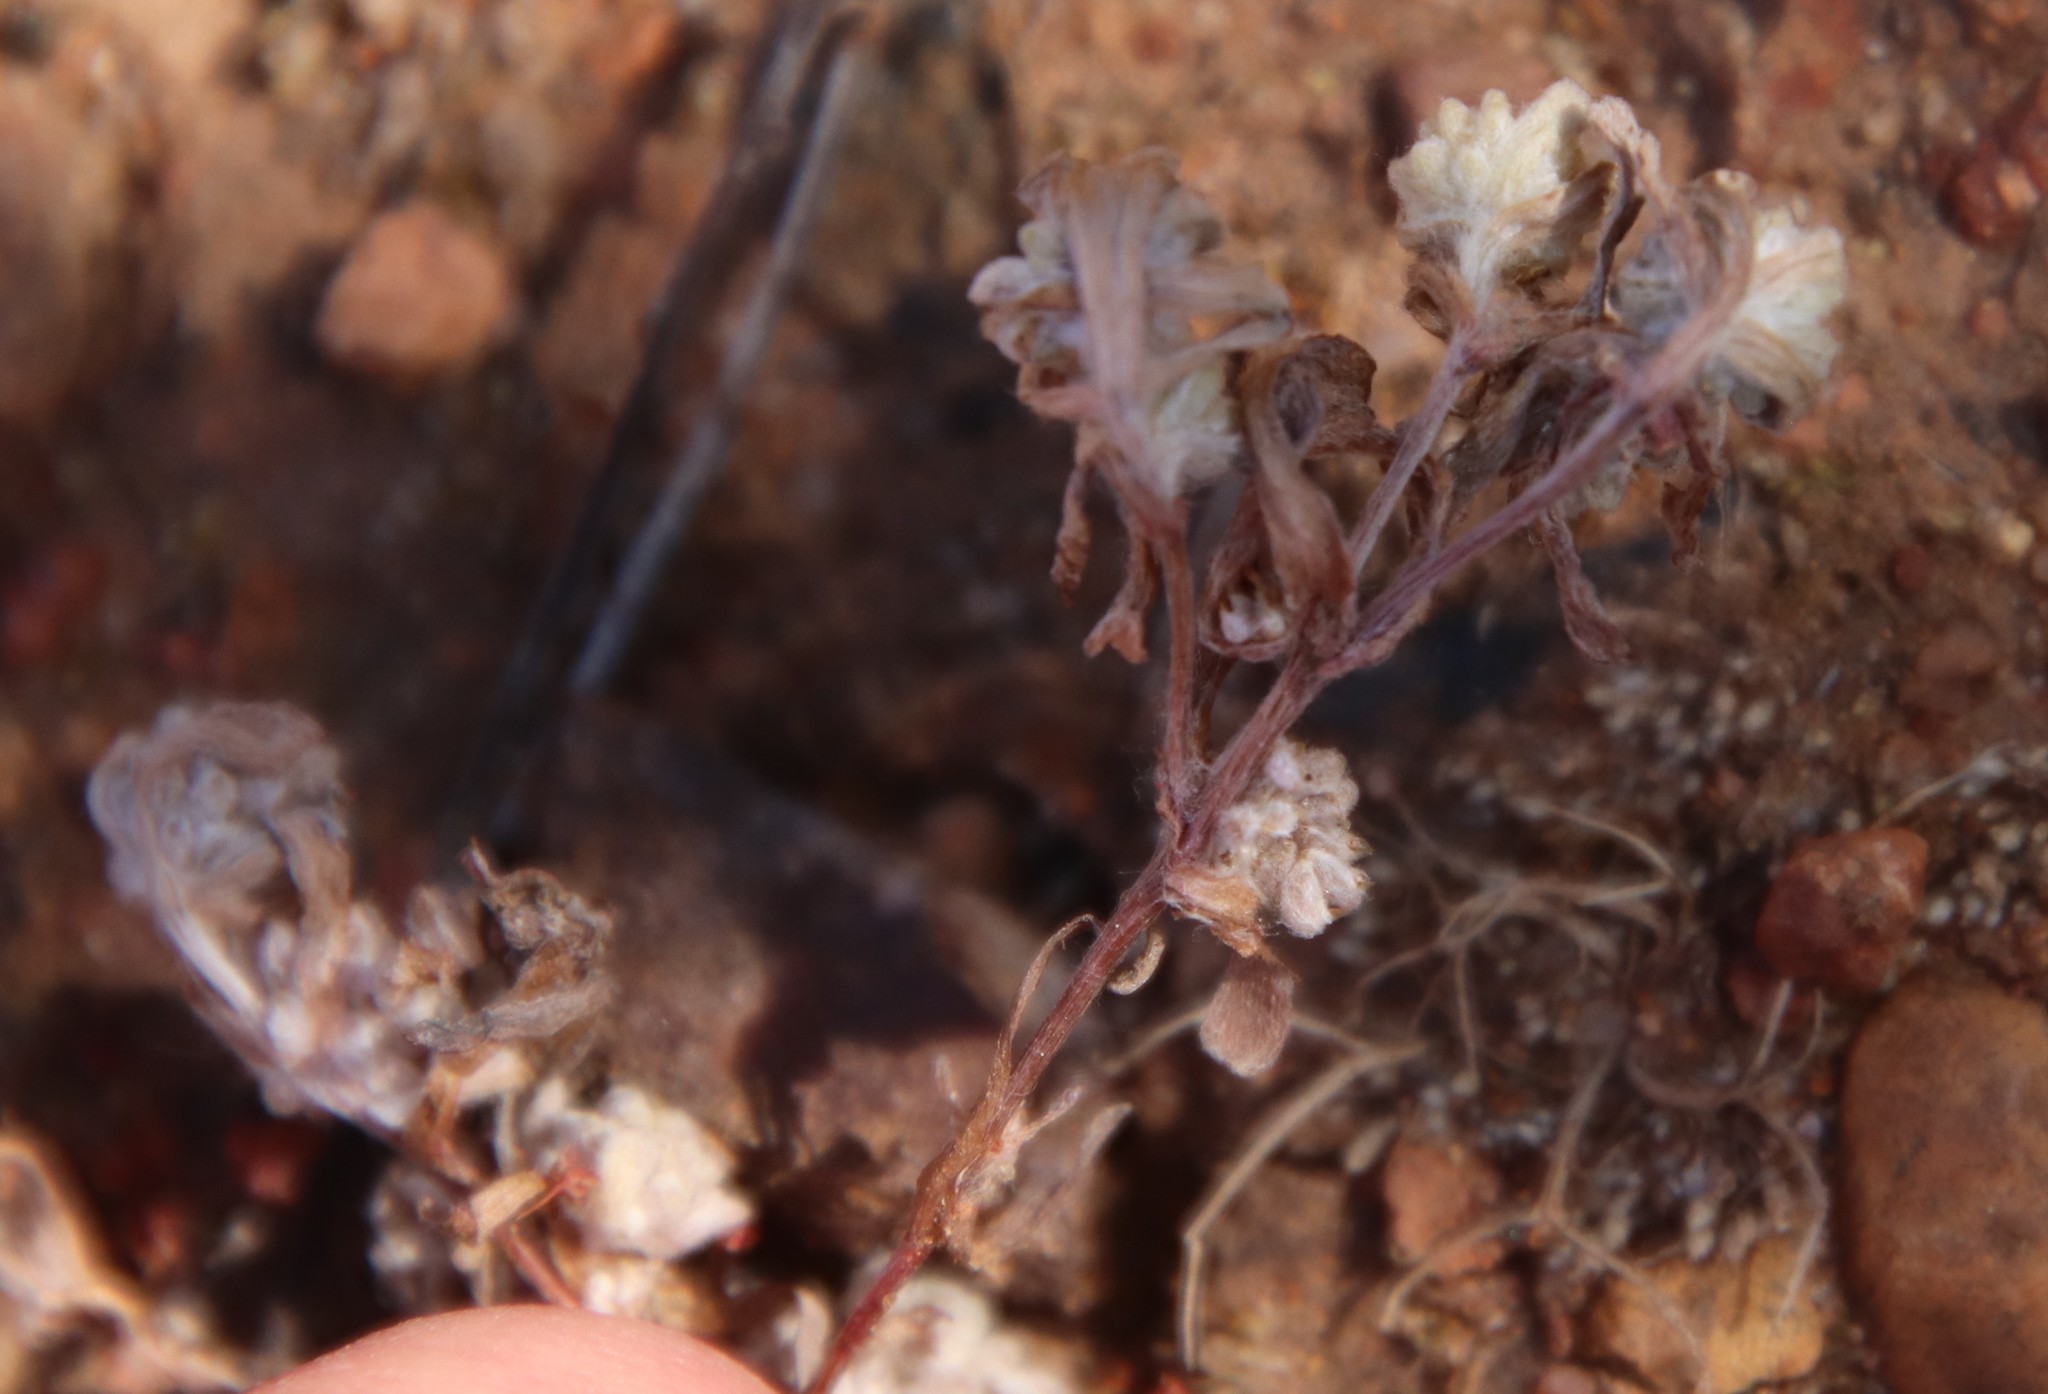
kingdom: Plantae
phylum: Tracheophyta
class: Magnoliopsida
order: Asterales
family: Asteraceae
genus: Psilocarphus
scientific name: Psilocarphus tenellus
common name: Slender woolly-marbles
